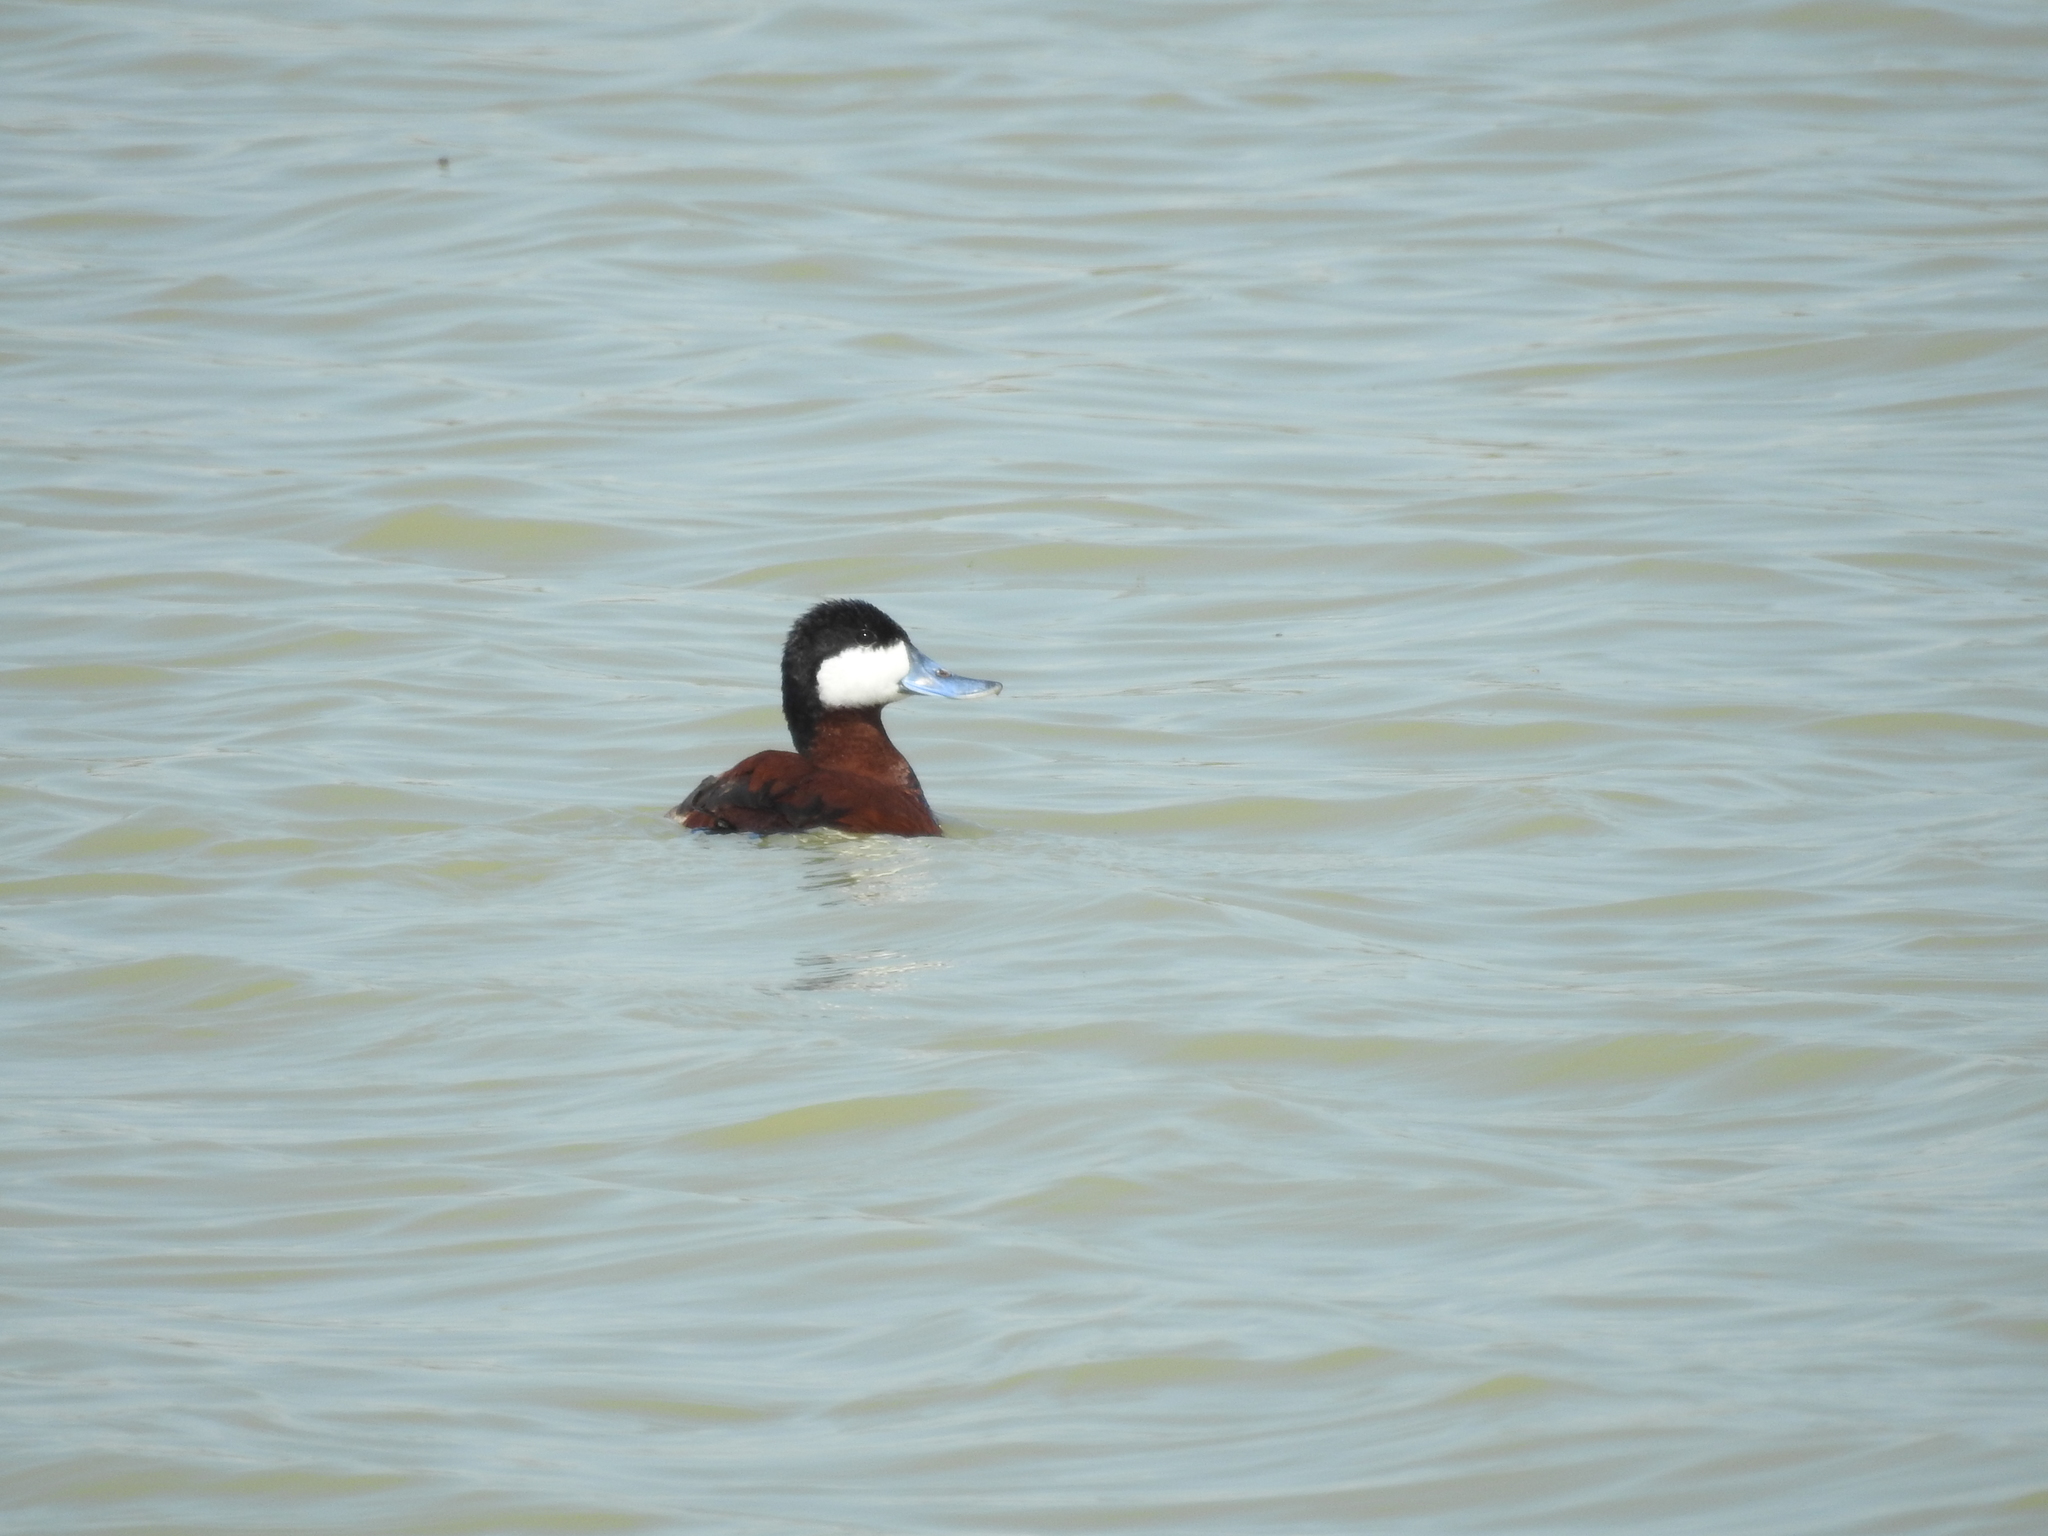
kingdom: Animalia
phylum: Chordata
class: Aves
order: Anseriformes
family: Anatidae
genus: Oxyura
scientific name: Oxyura jamaicensis
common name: Ruddy duck
